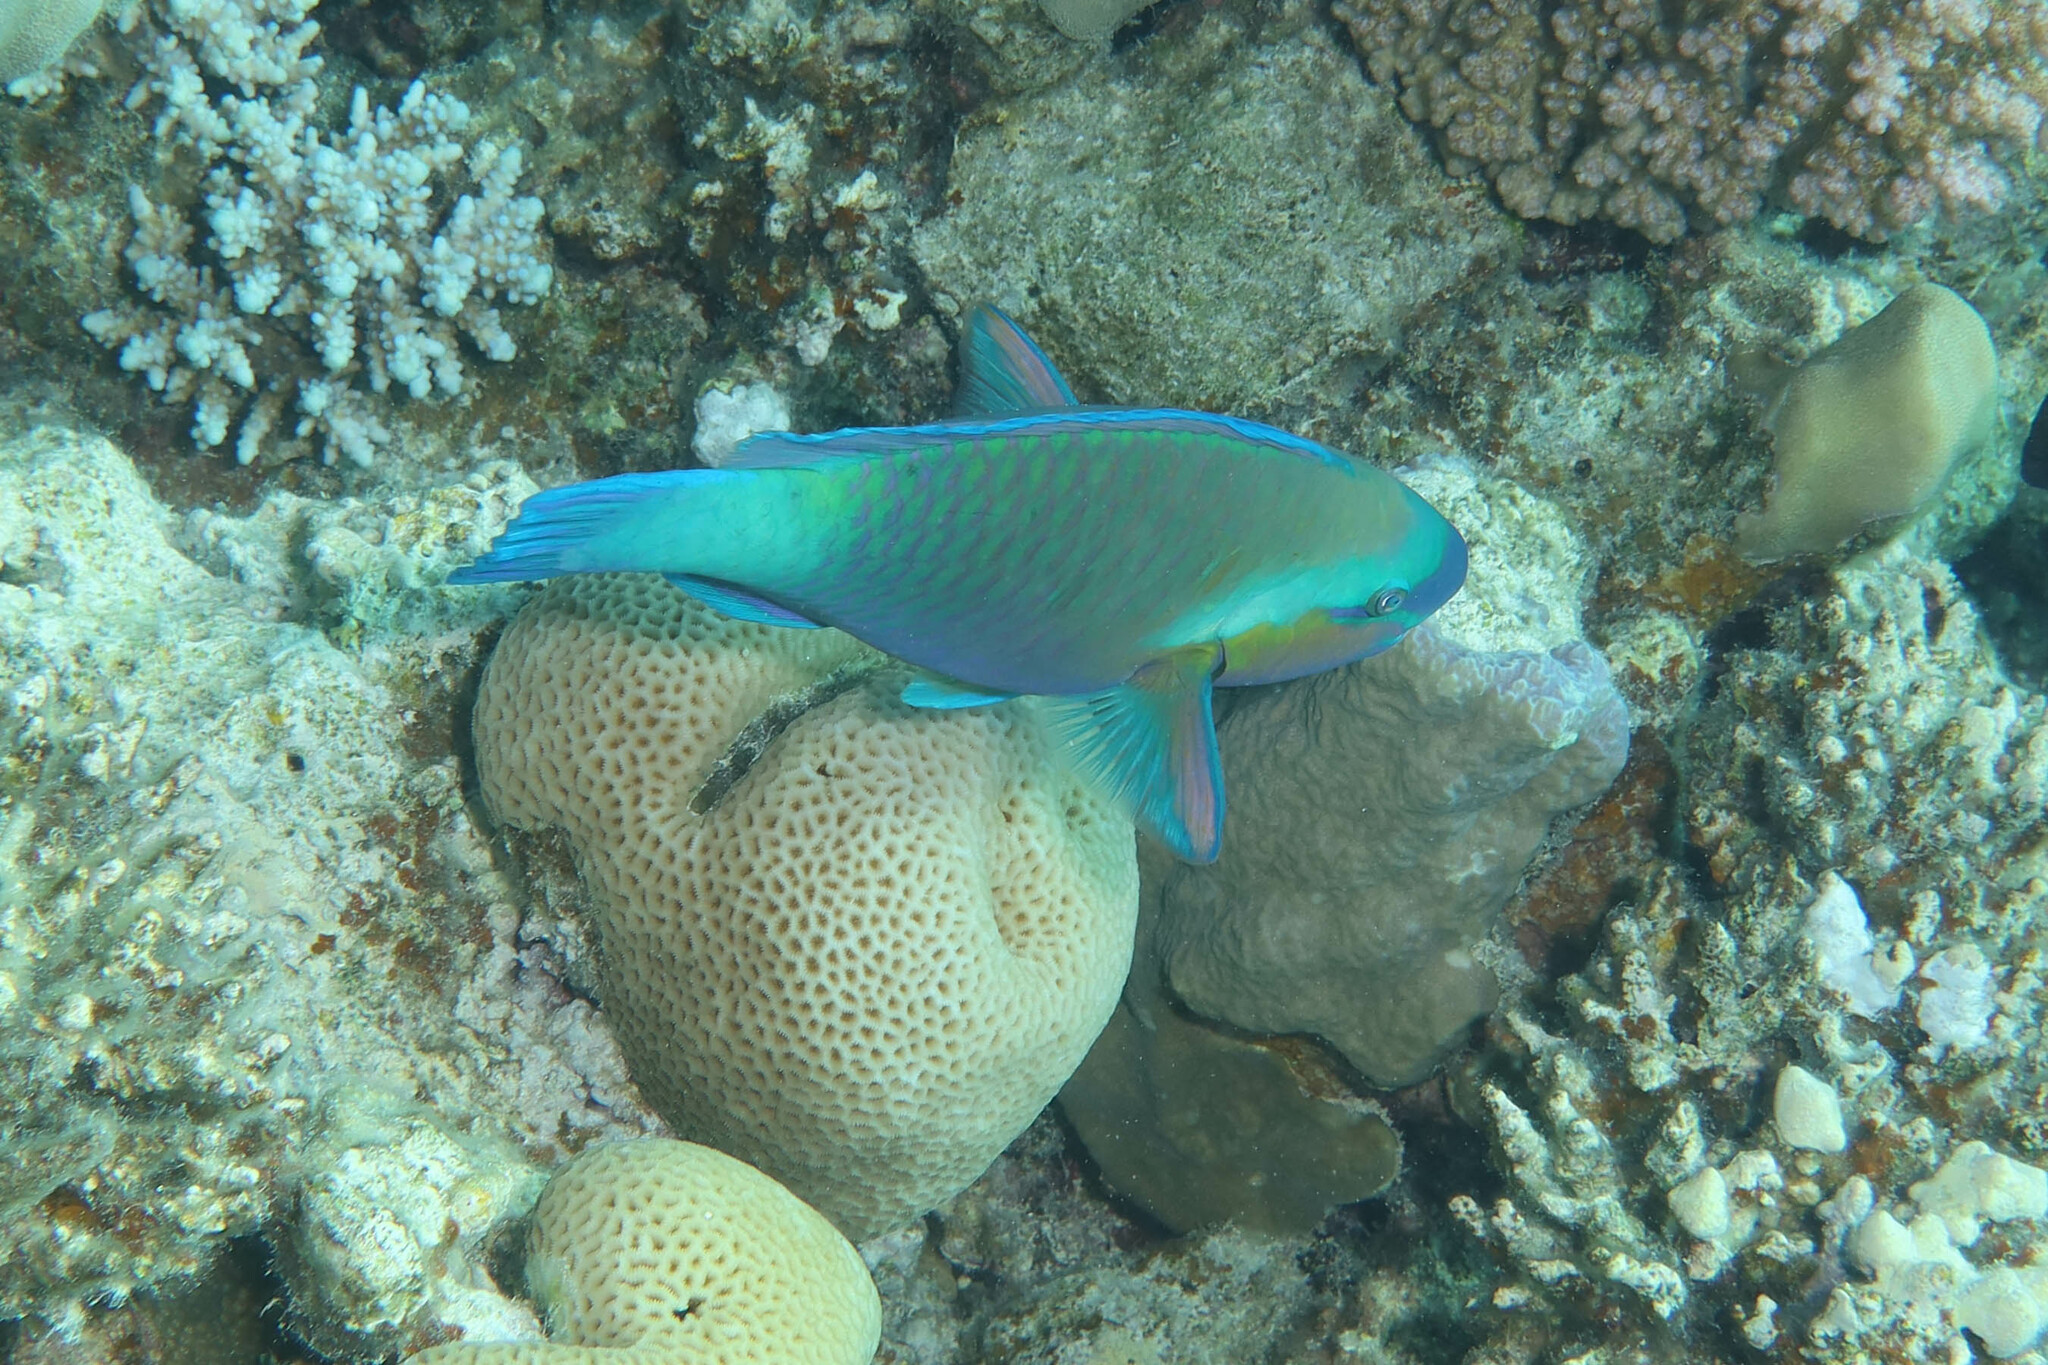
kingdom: Animalia
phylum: Chordata
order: Perciformes
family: Scaridae
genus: Chlorurus
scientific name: Chlorurus sordidus
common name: Bullethead parrotfish
